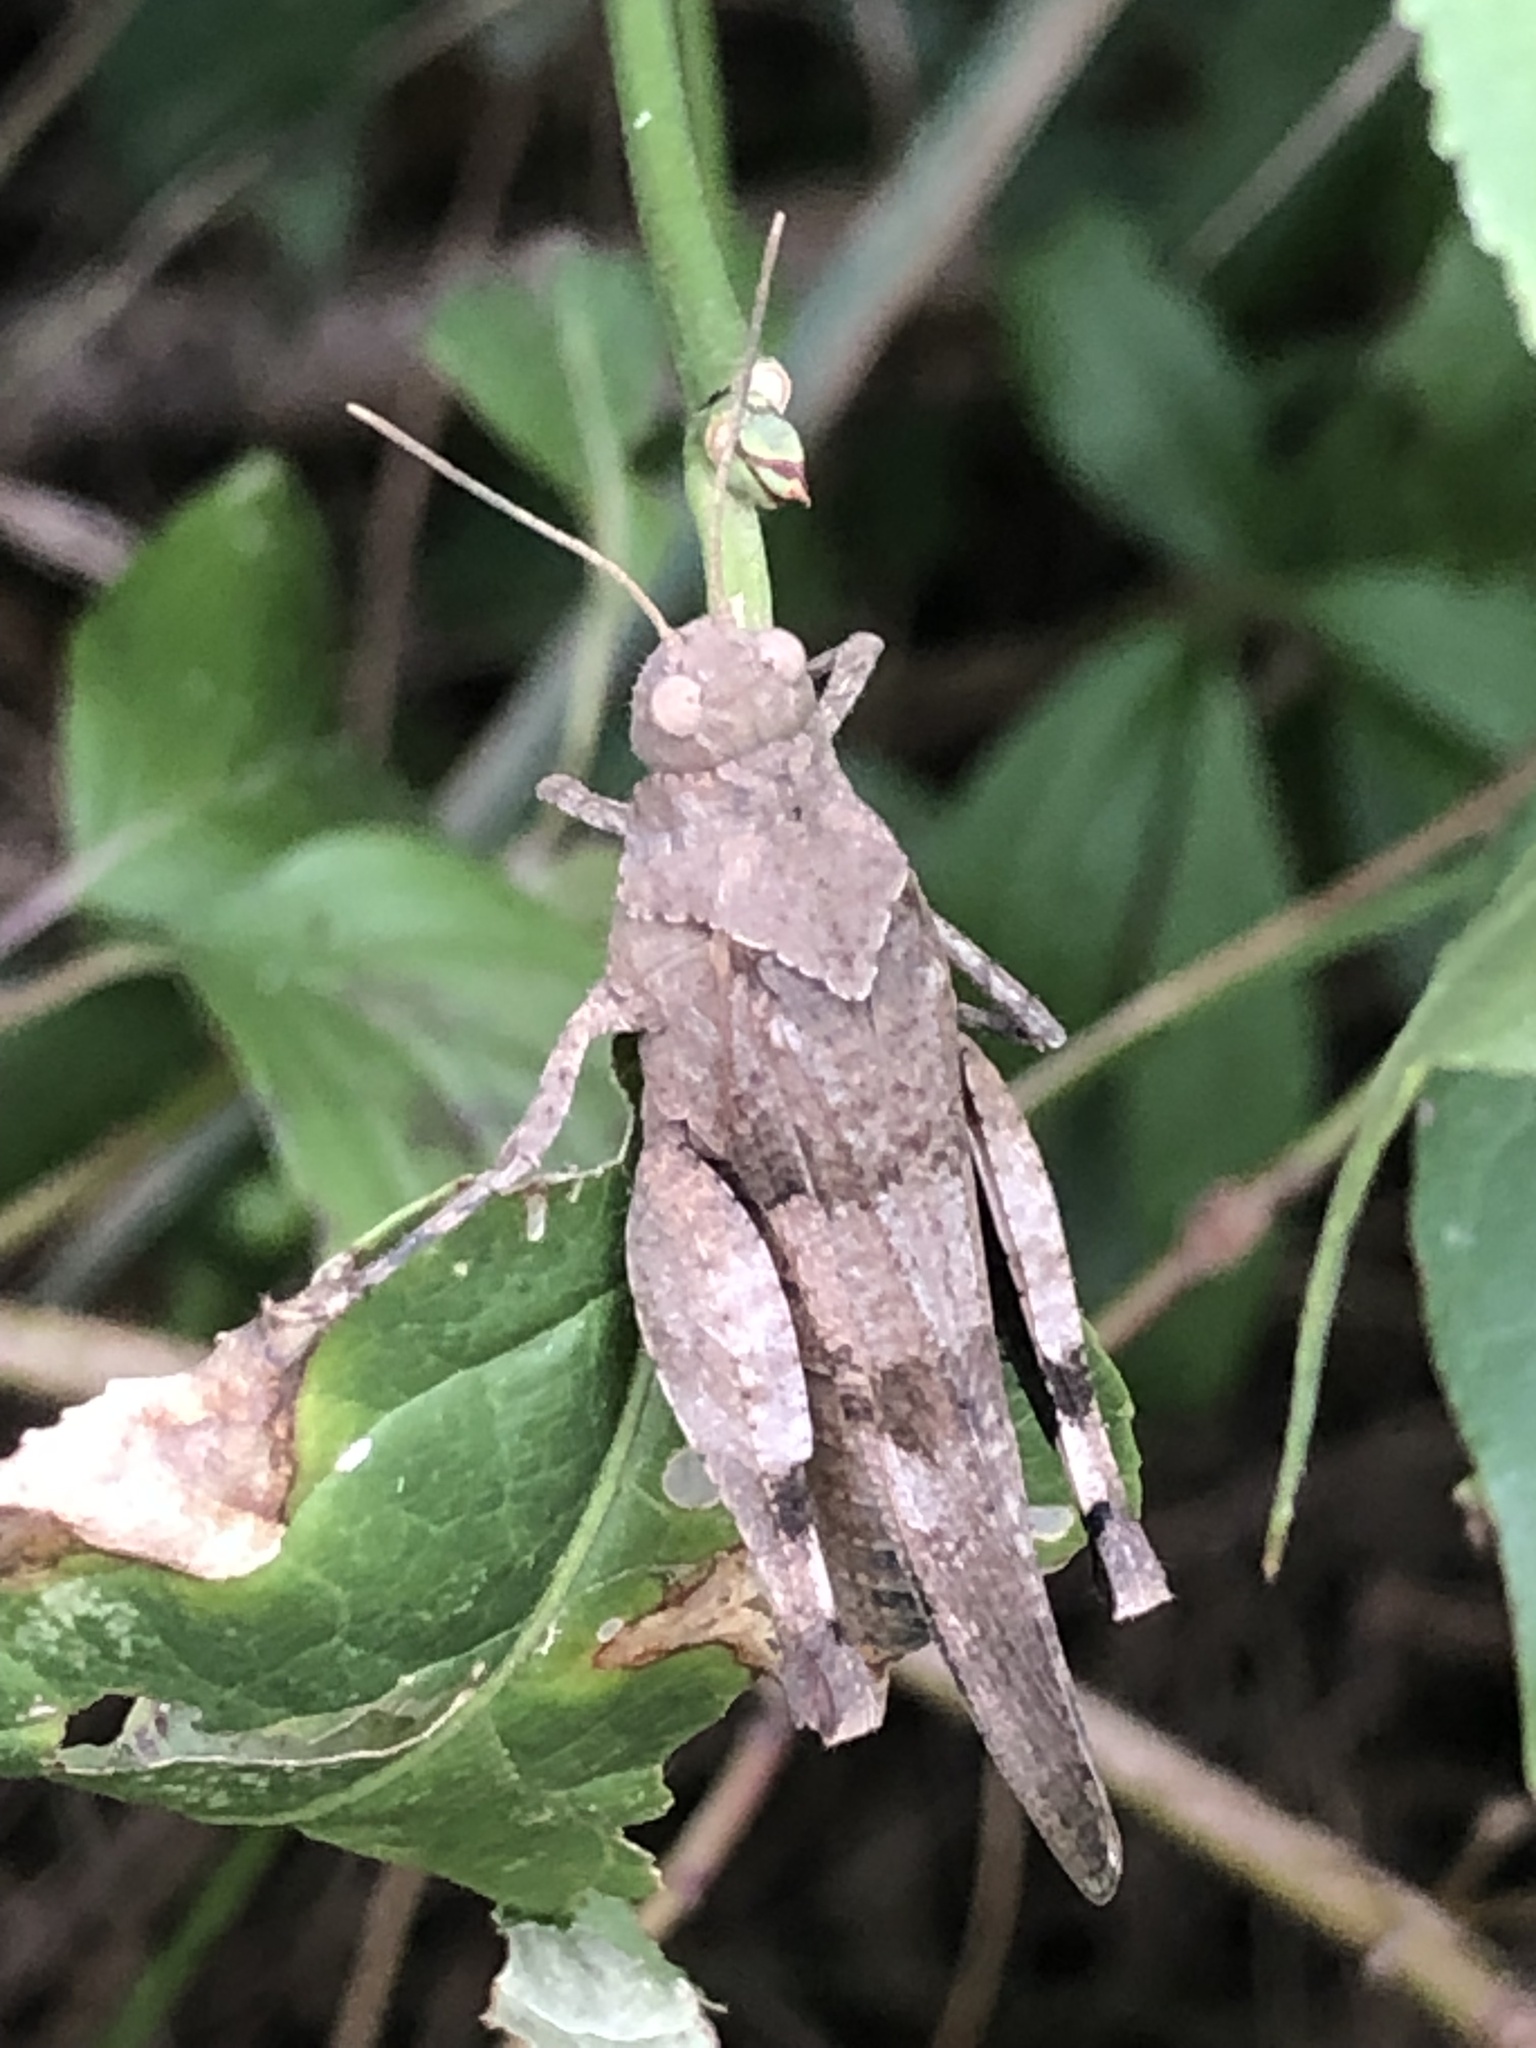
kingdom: Animalia
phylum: Arthropoda
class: Insecta
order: Orthoptera
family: Acrididae
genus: Oedipoda
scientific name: Oedipoda caerulescens
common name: Blue-winged grasshopper
